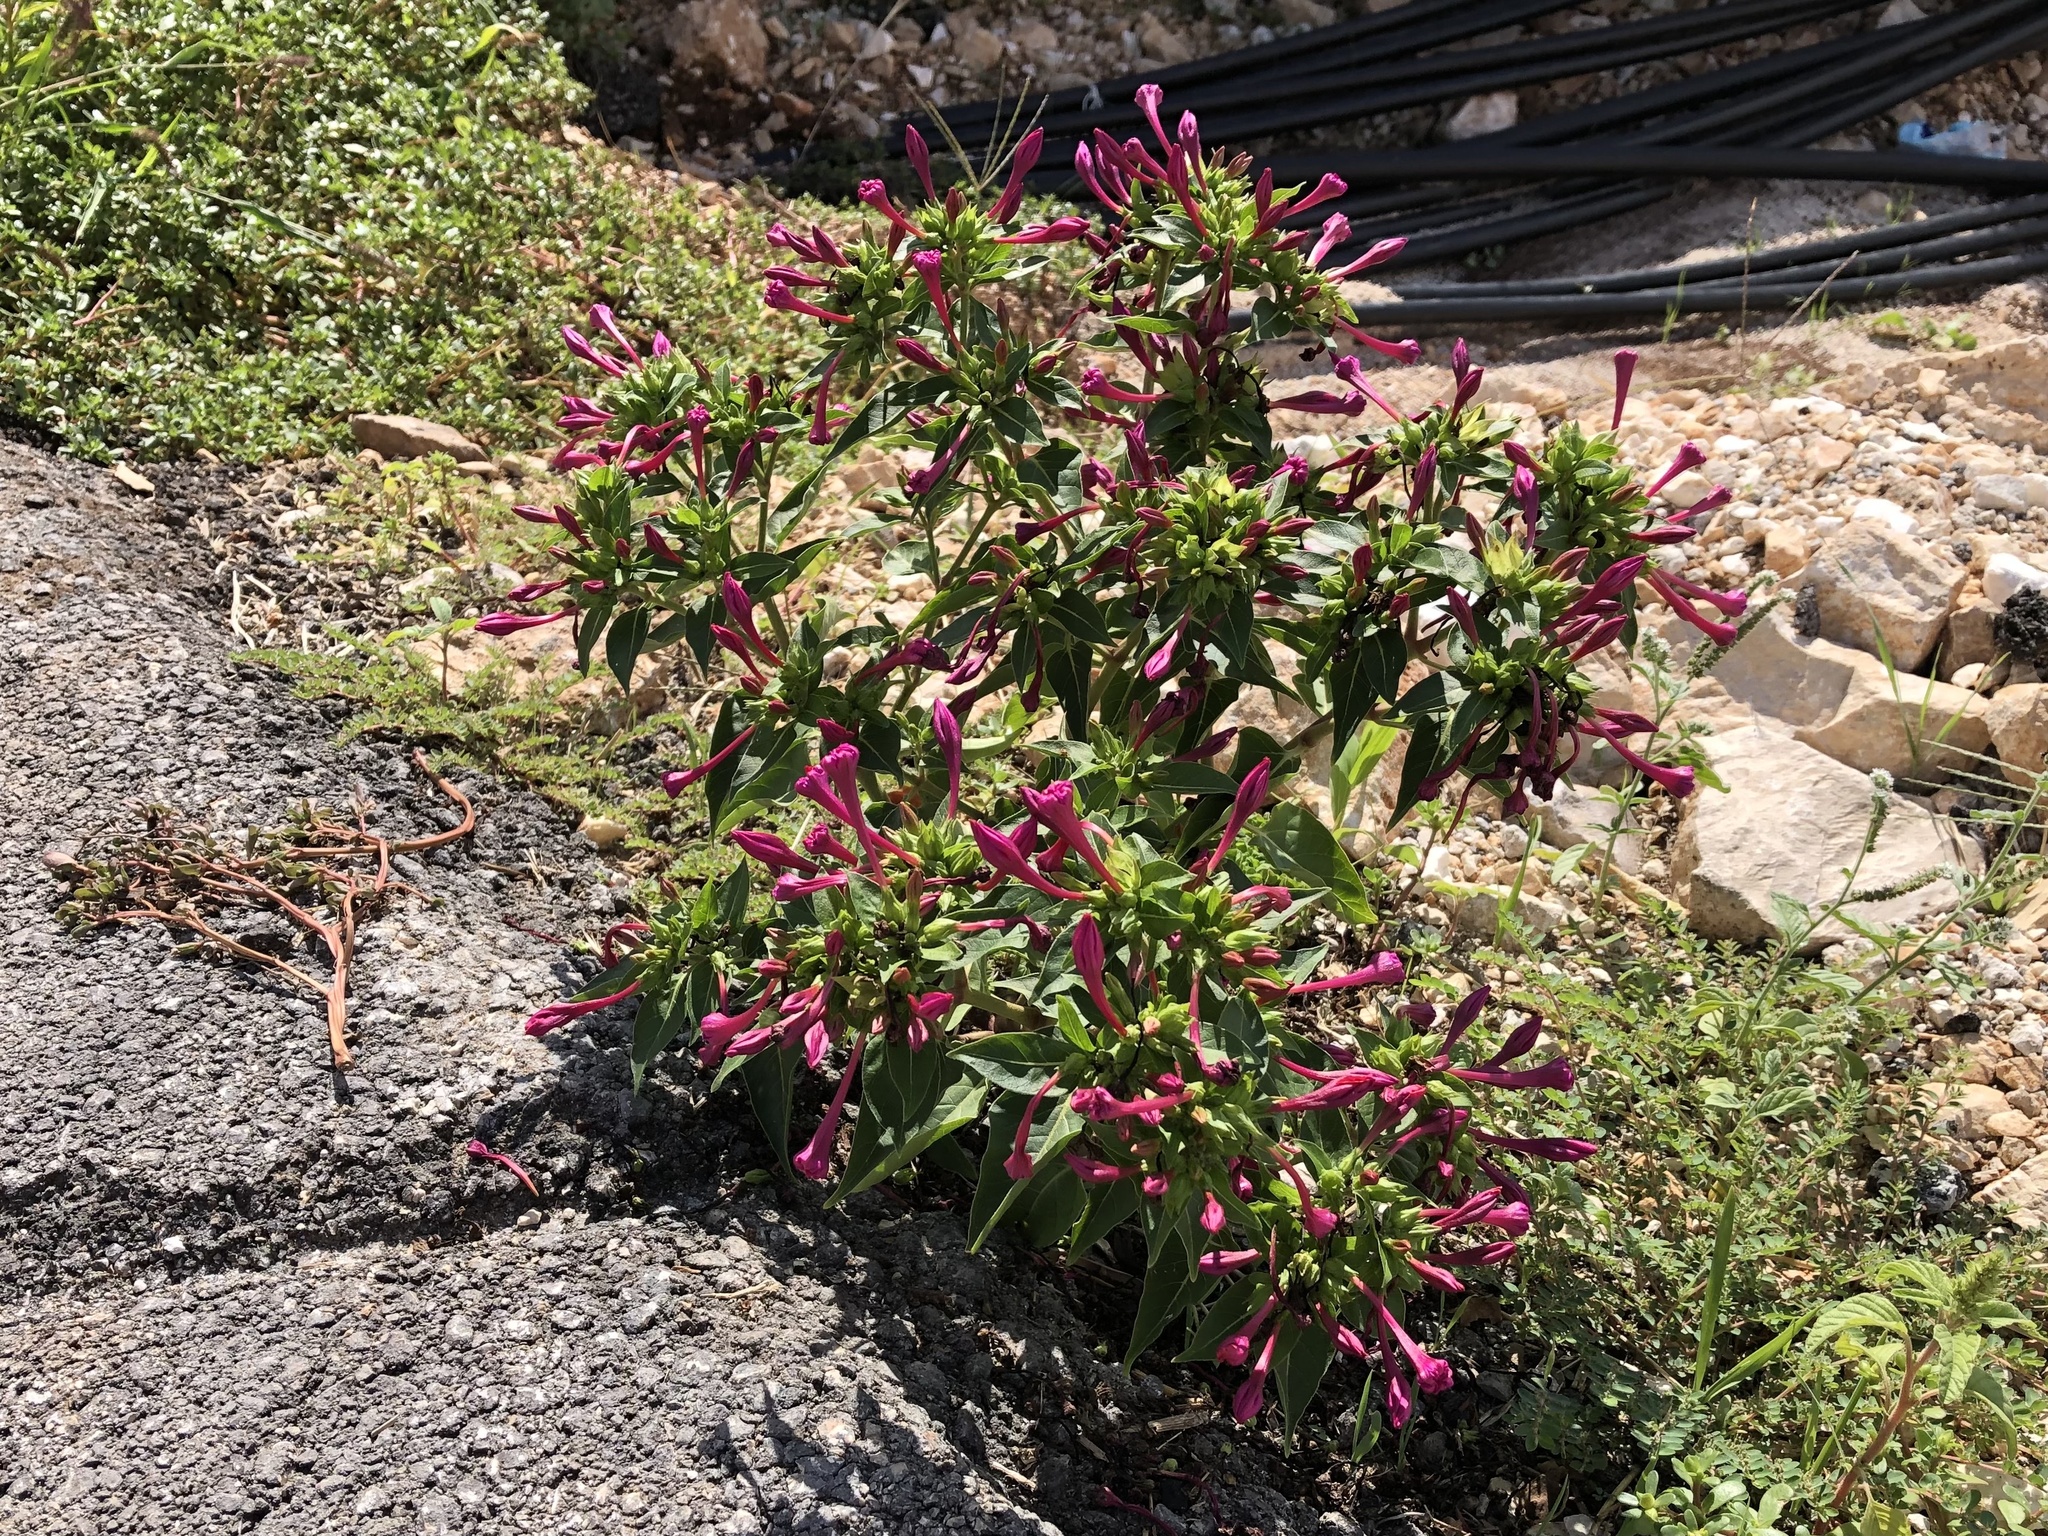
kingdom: Plantae
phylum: Tracheophyta
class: Magnoliopsida
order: Caryophyllales
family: Nyctaginaceae
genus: Mirabilis
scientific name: Mirabilis jalapa
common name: Marvel-of-peru
